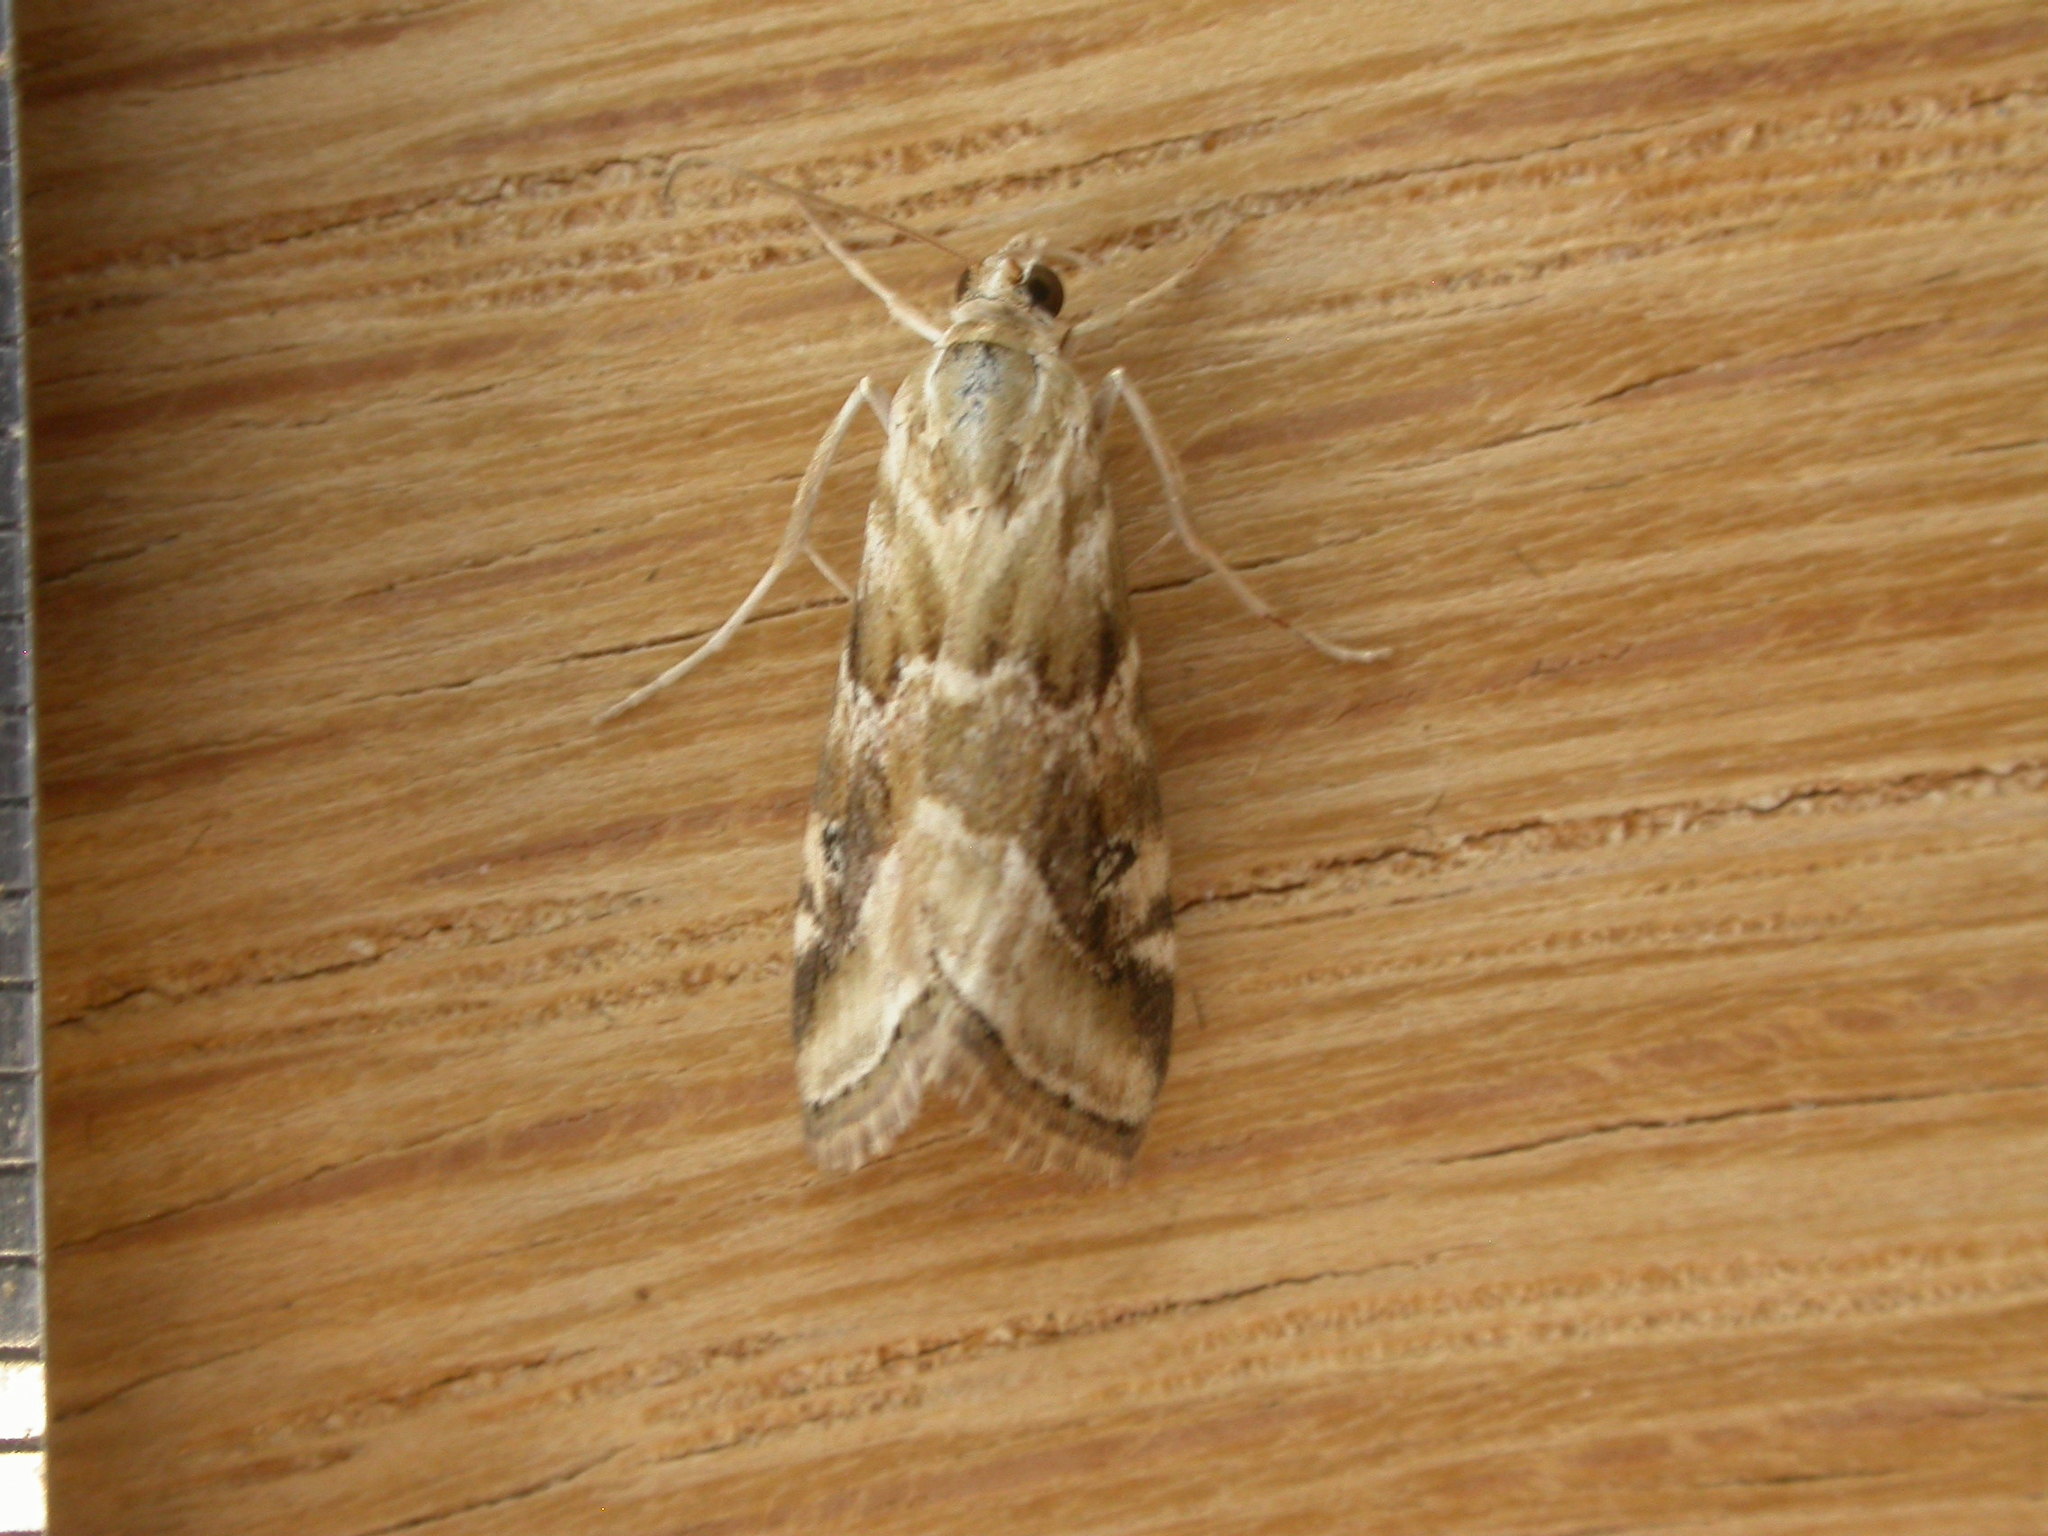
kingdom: Animalia
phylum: Arthropoda
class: Insecta
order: Lepidoptera
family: Crambidae
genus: Hellula
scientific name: Hellula hydralis
